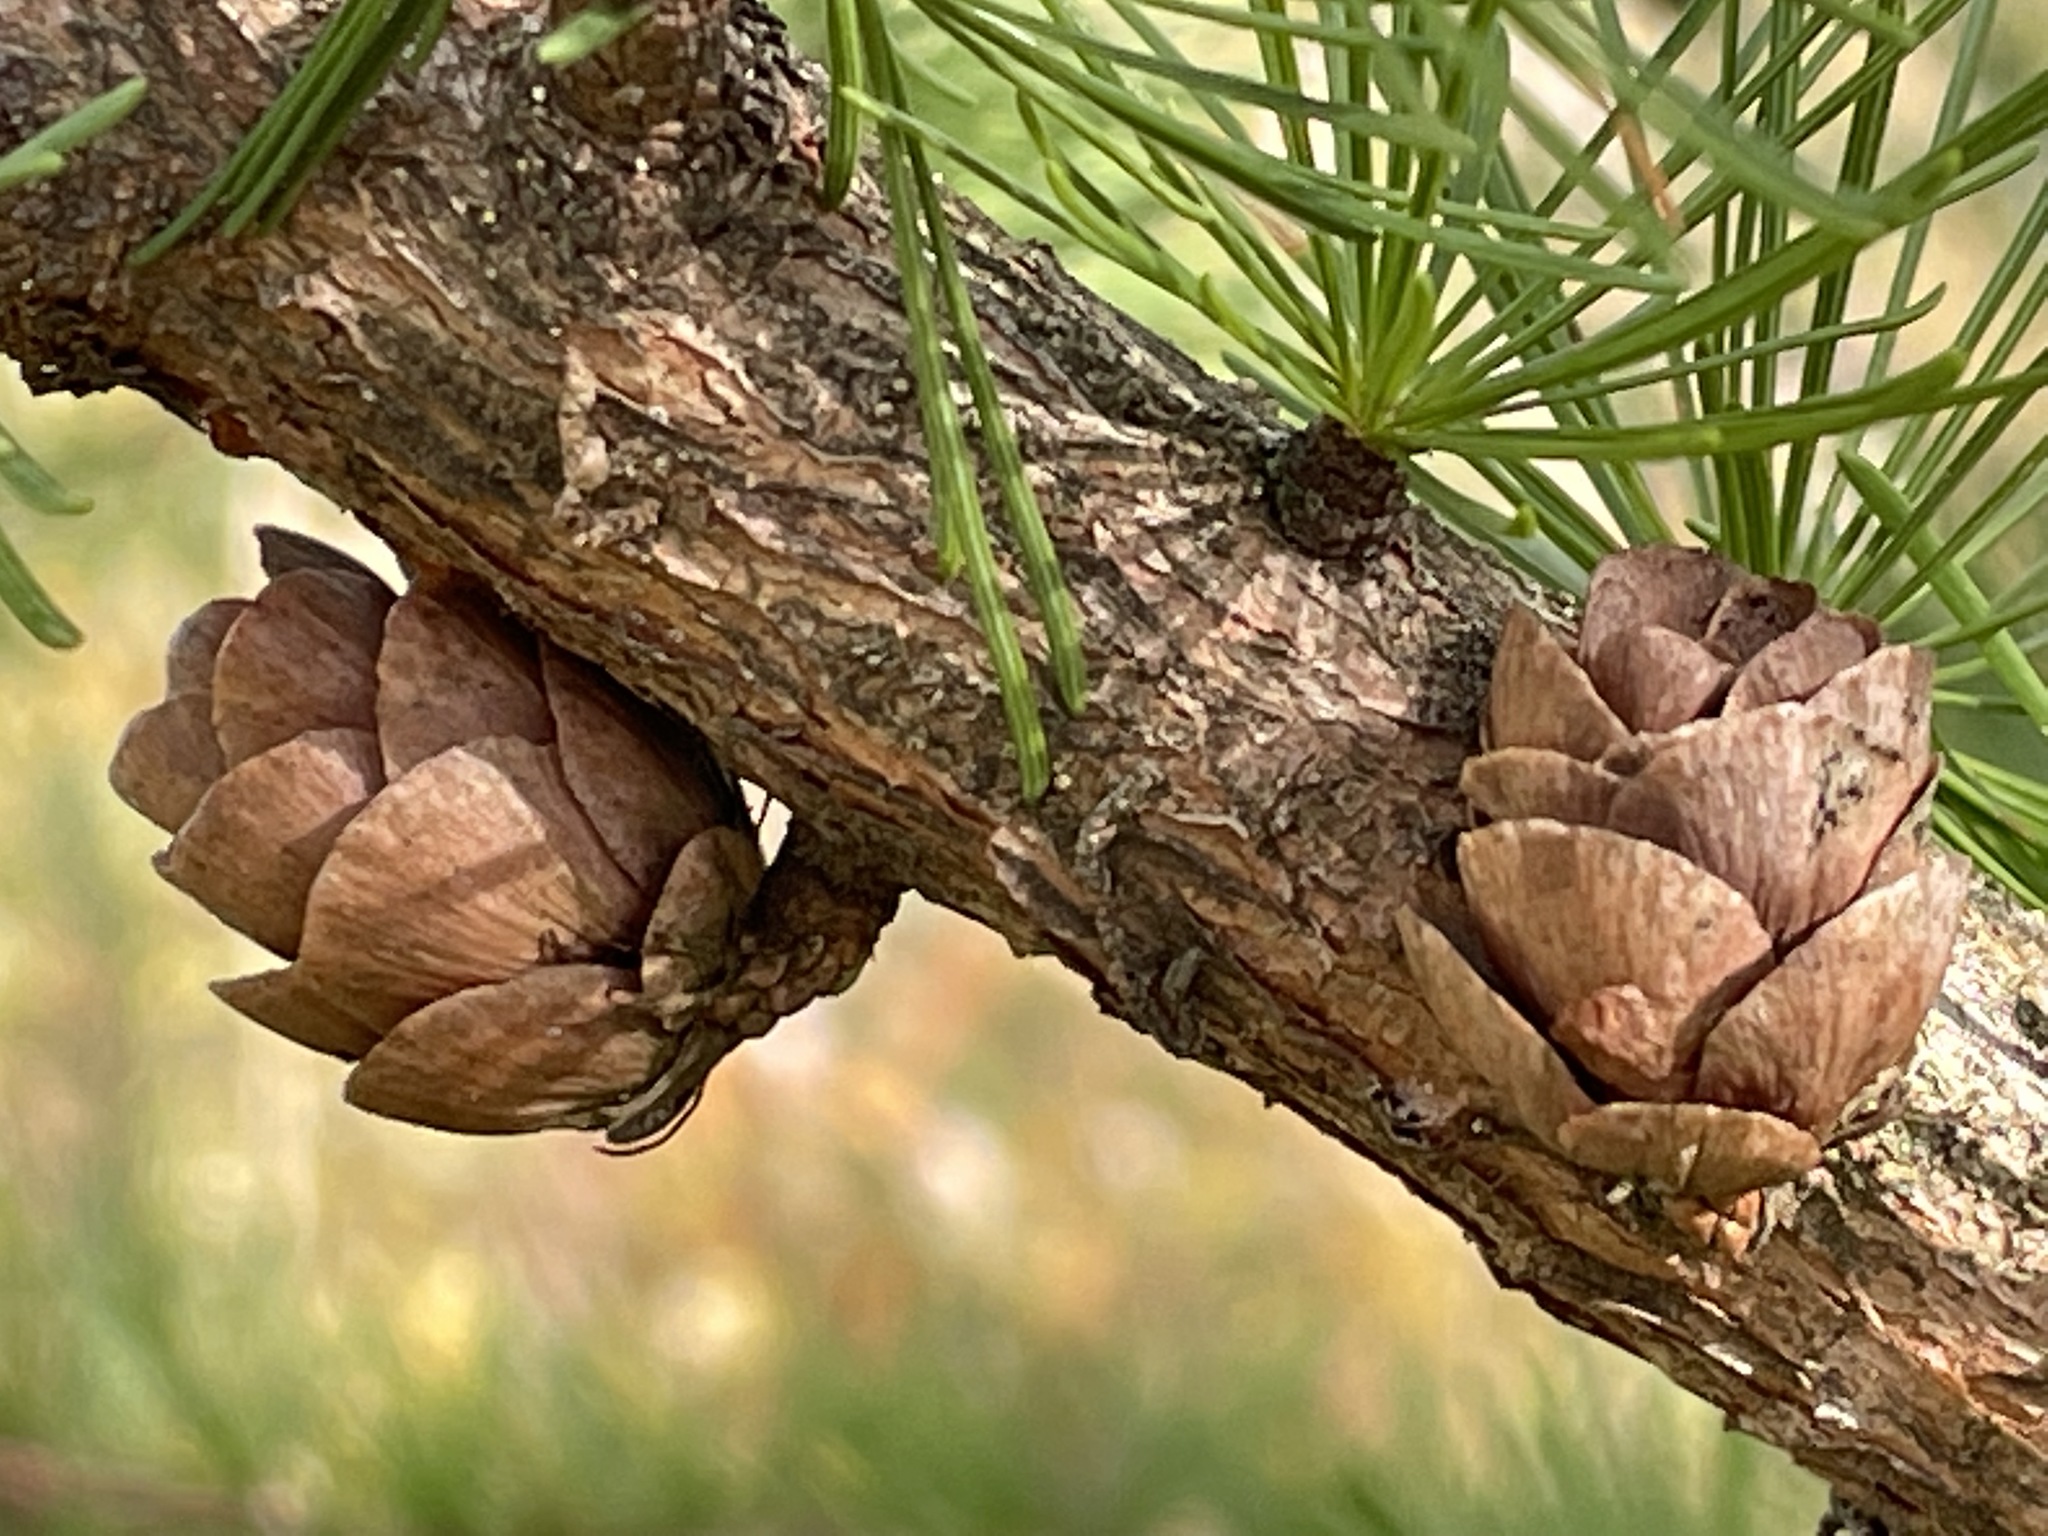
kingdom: Plantae
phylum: Tracheophyta
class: Pinopsida
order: Pinales
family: Pinaceae
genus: Larix
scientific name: Larix laricina
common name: American larch
